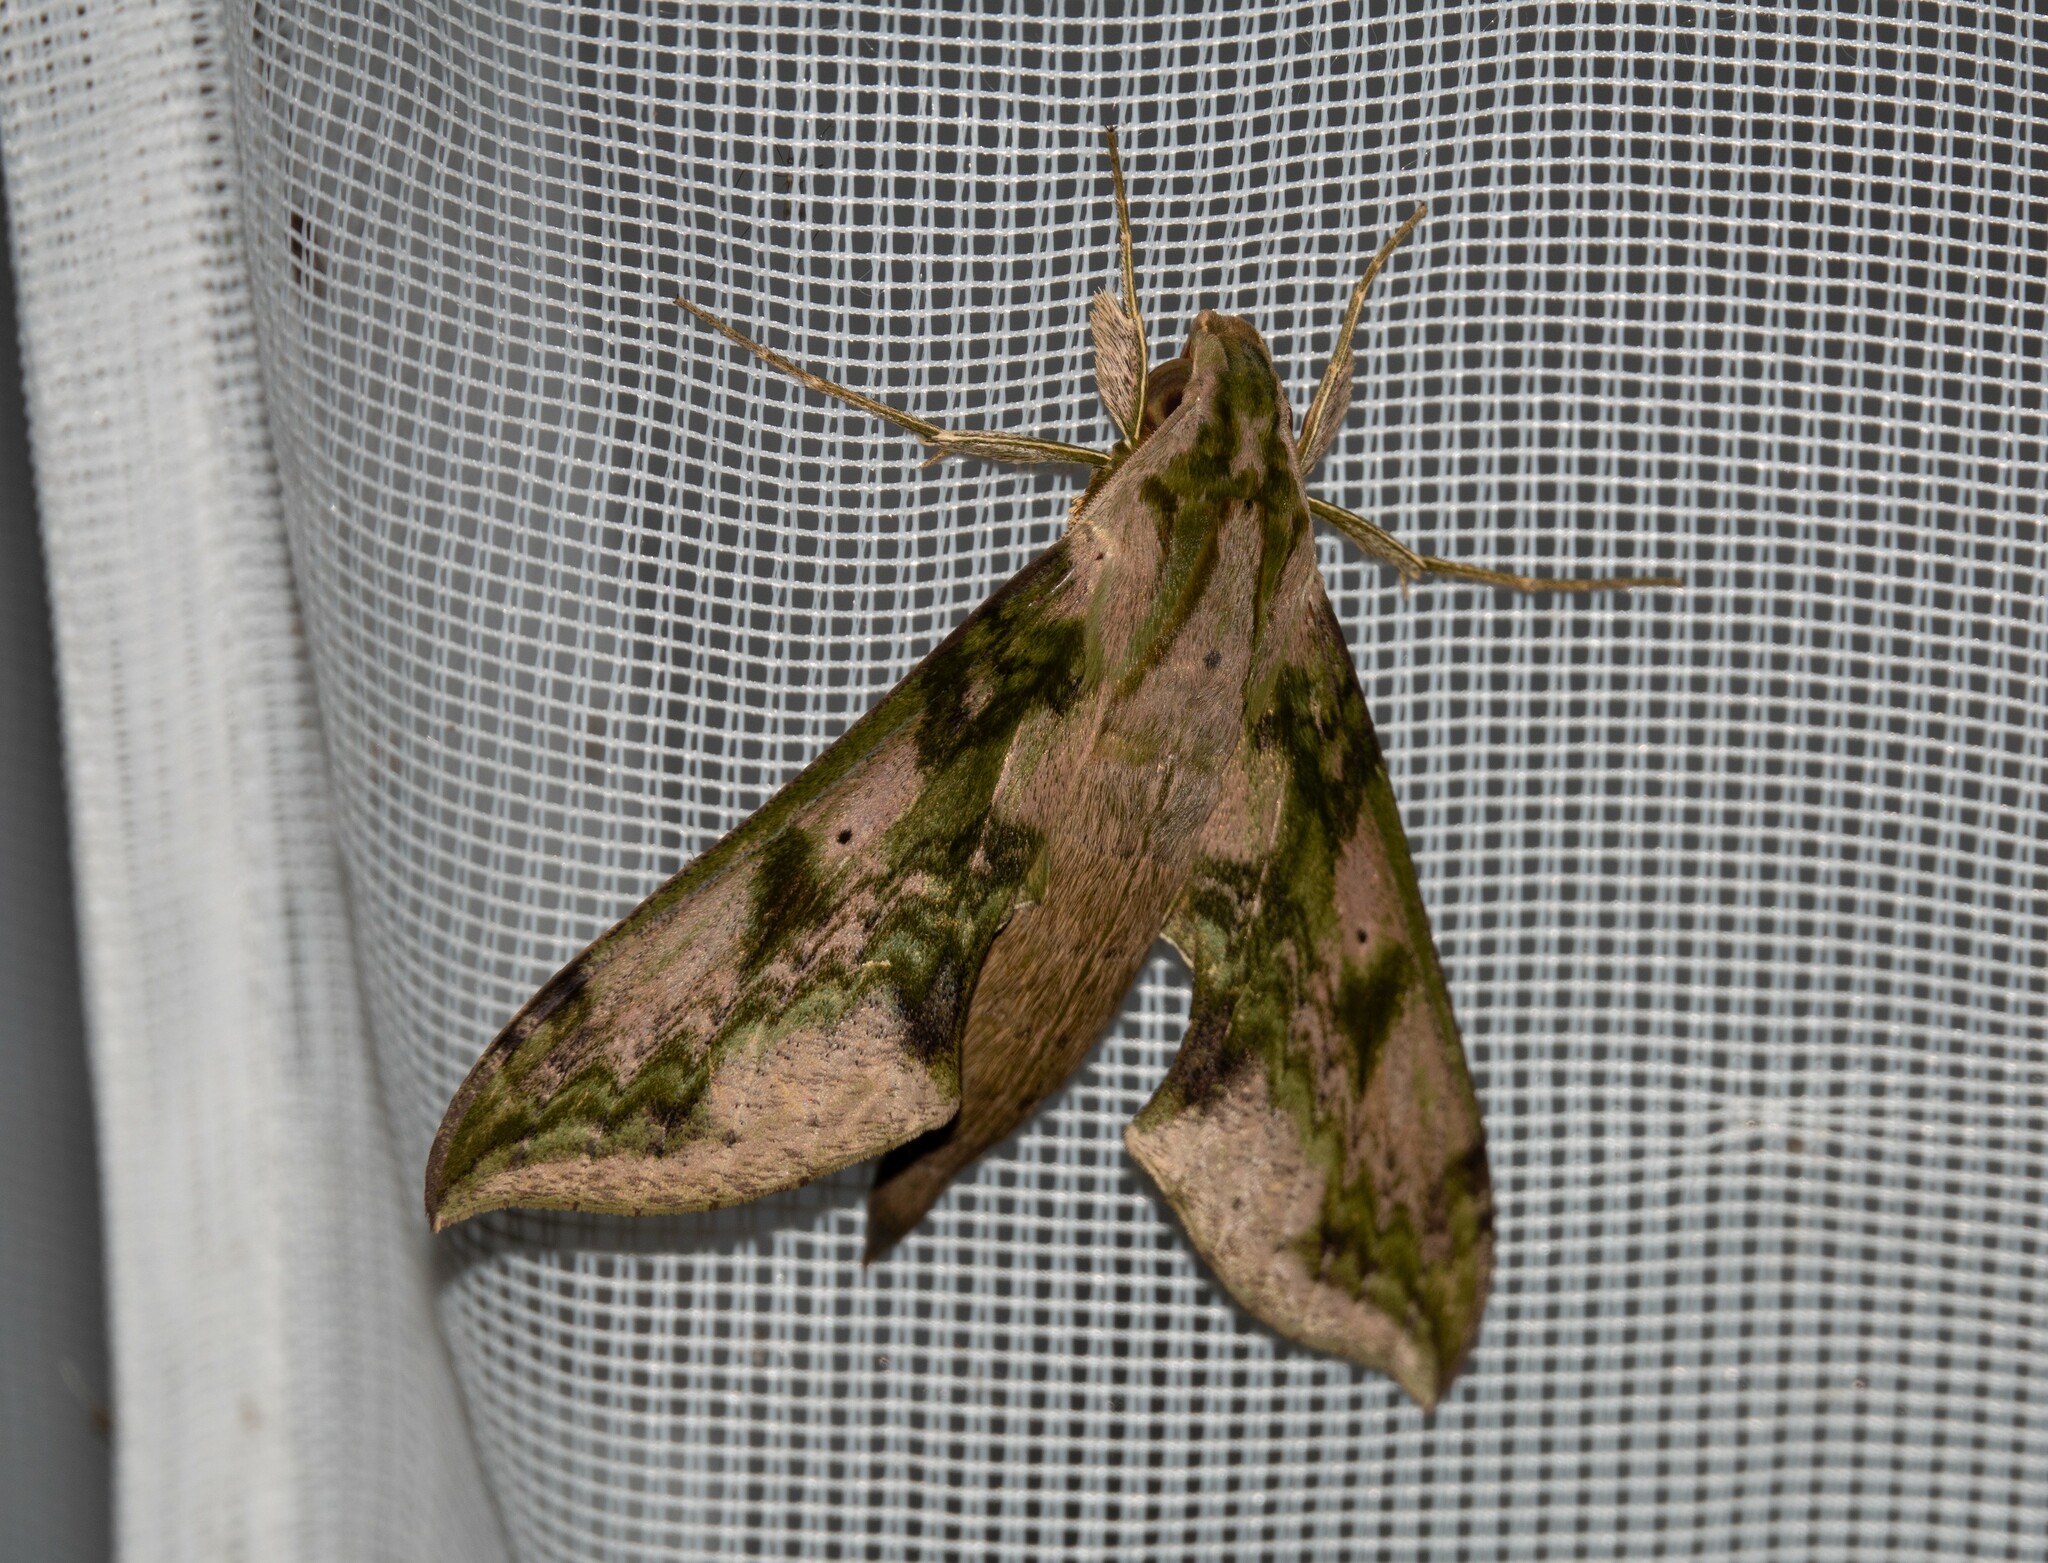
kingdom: Animalia
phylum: Arthropoda
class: Insecta
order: Lepidoptera
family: Sphingidae
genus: Xylophanes
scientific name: Xylophanes fusimacula
